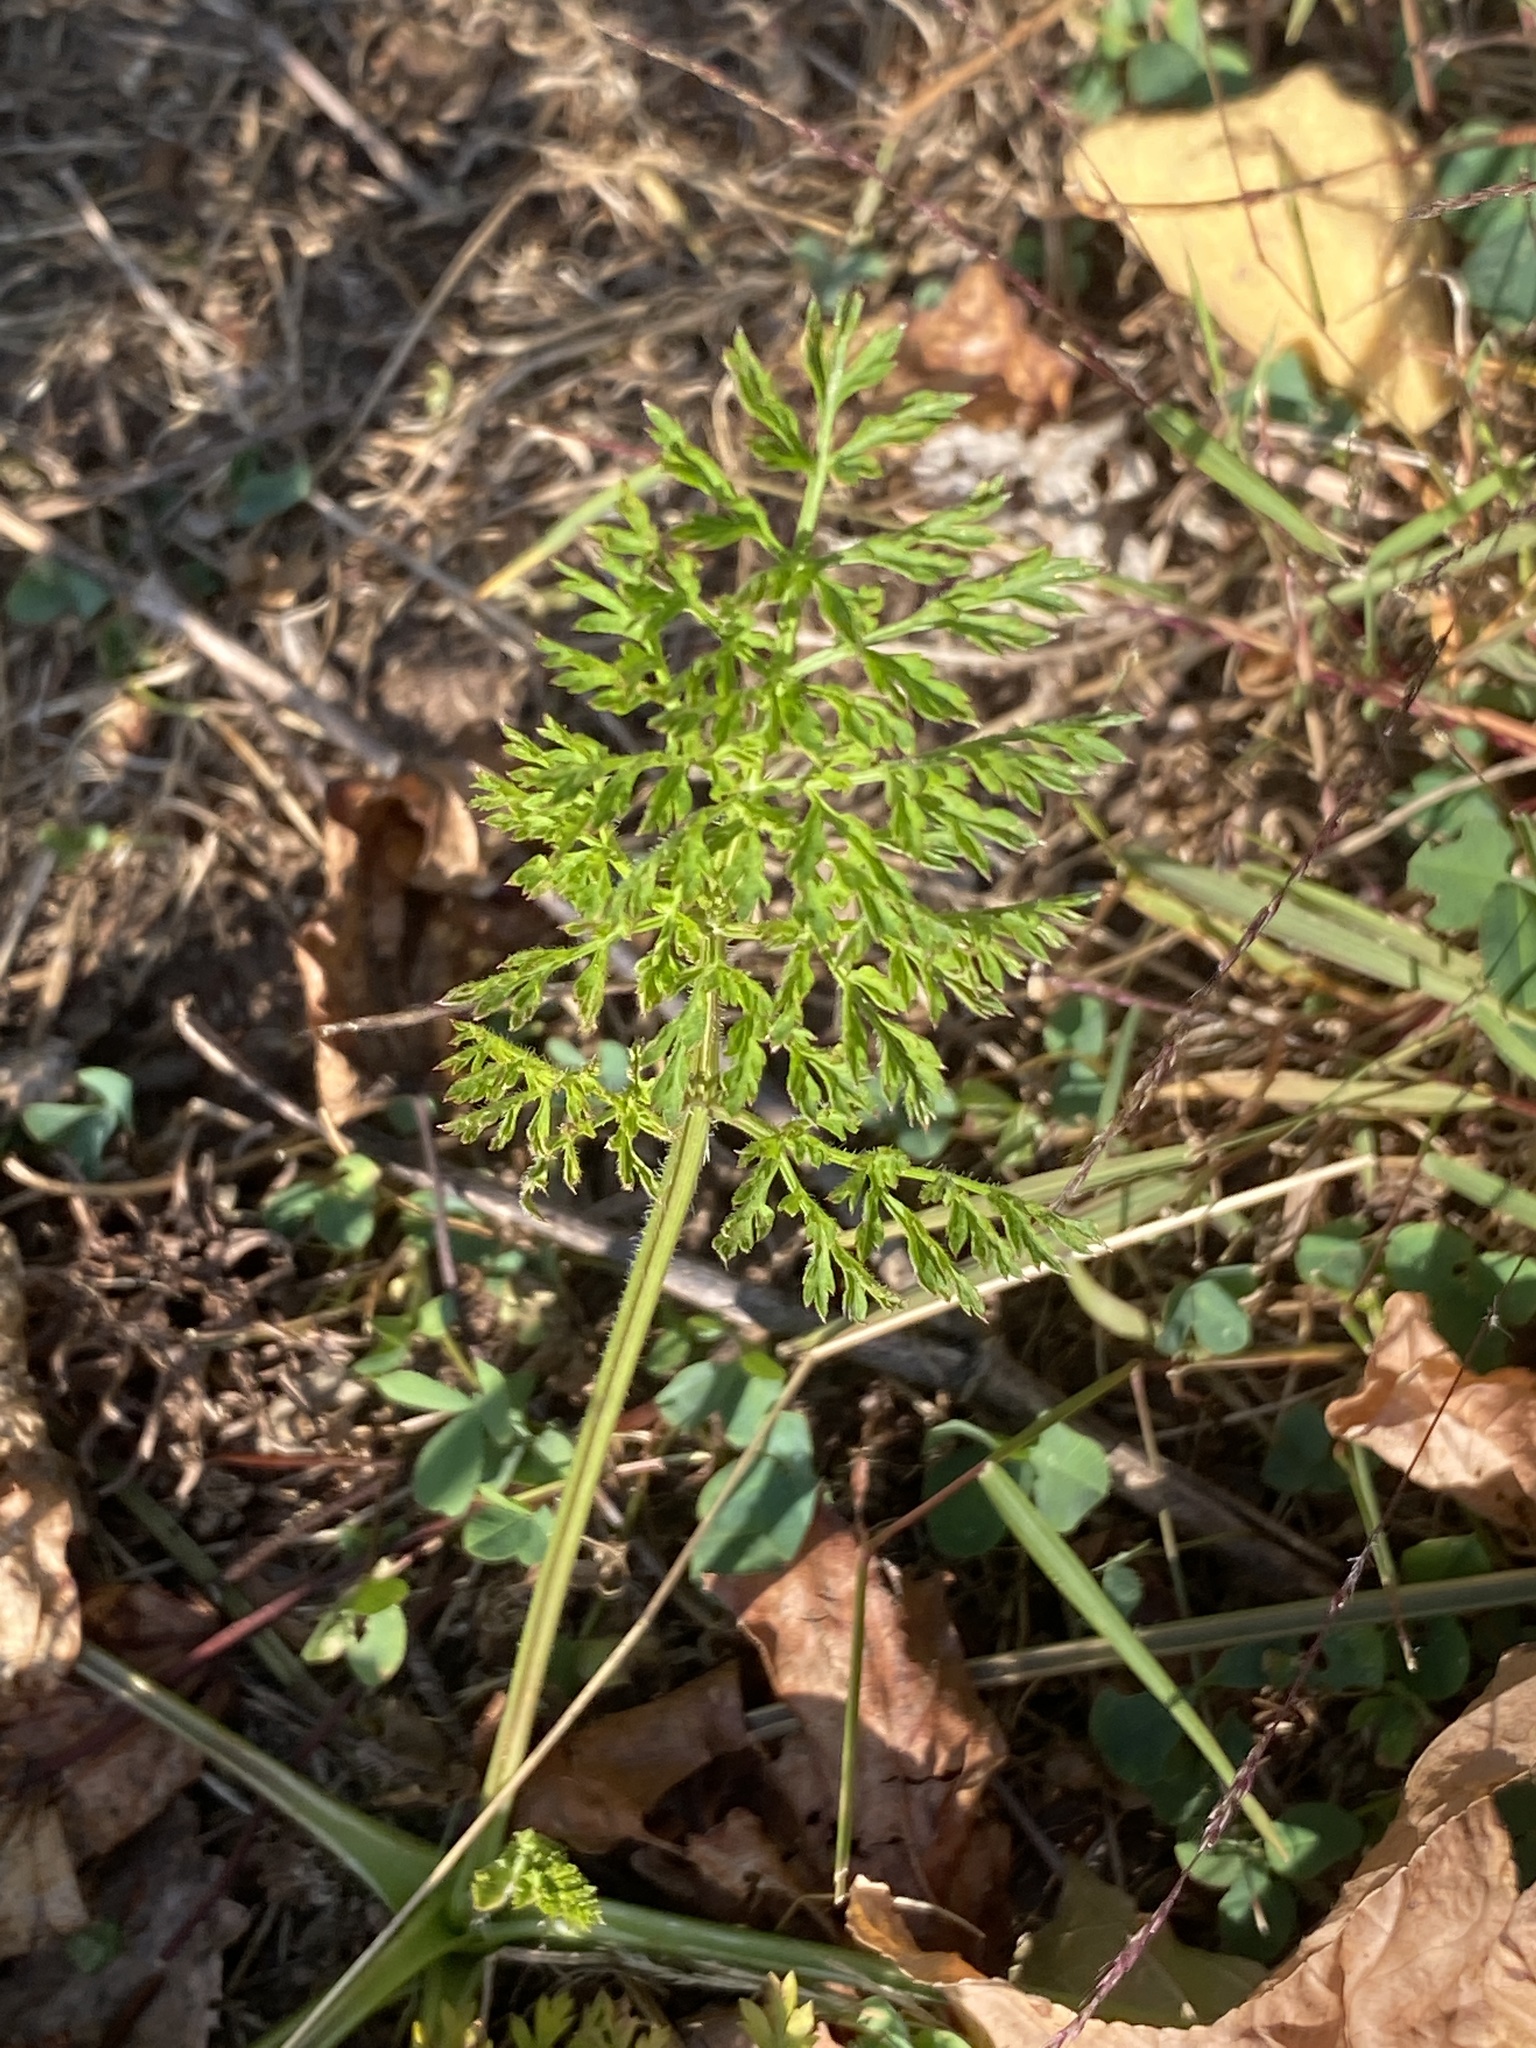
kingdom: Plantae
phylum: Tracheophyta
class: Magnoliopsida
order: Apiales
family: Apiaceae
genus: Daucus
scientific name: Daucus carota
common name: Wild carrot
